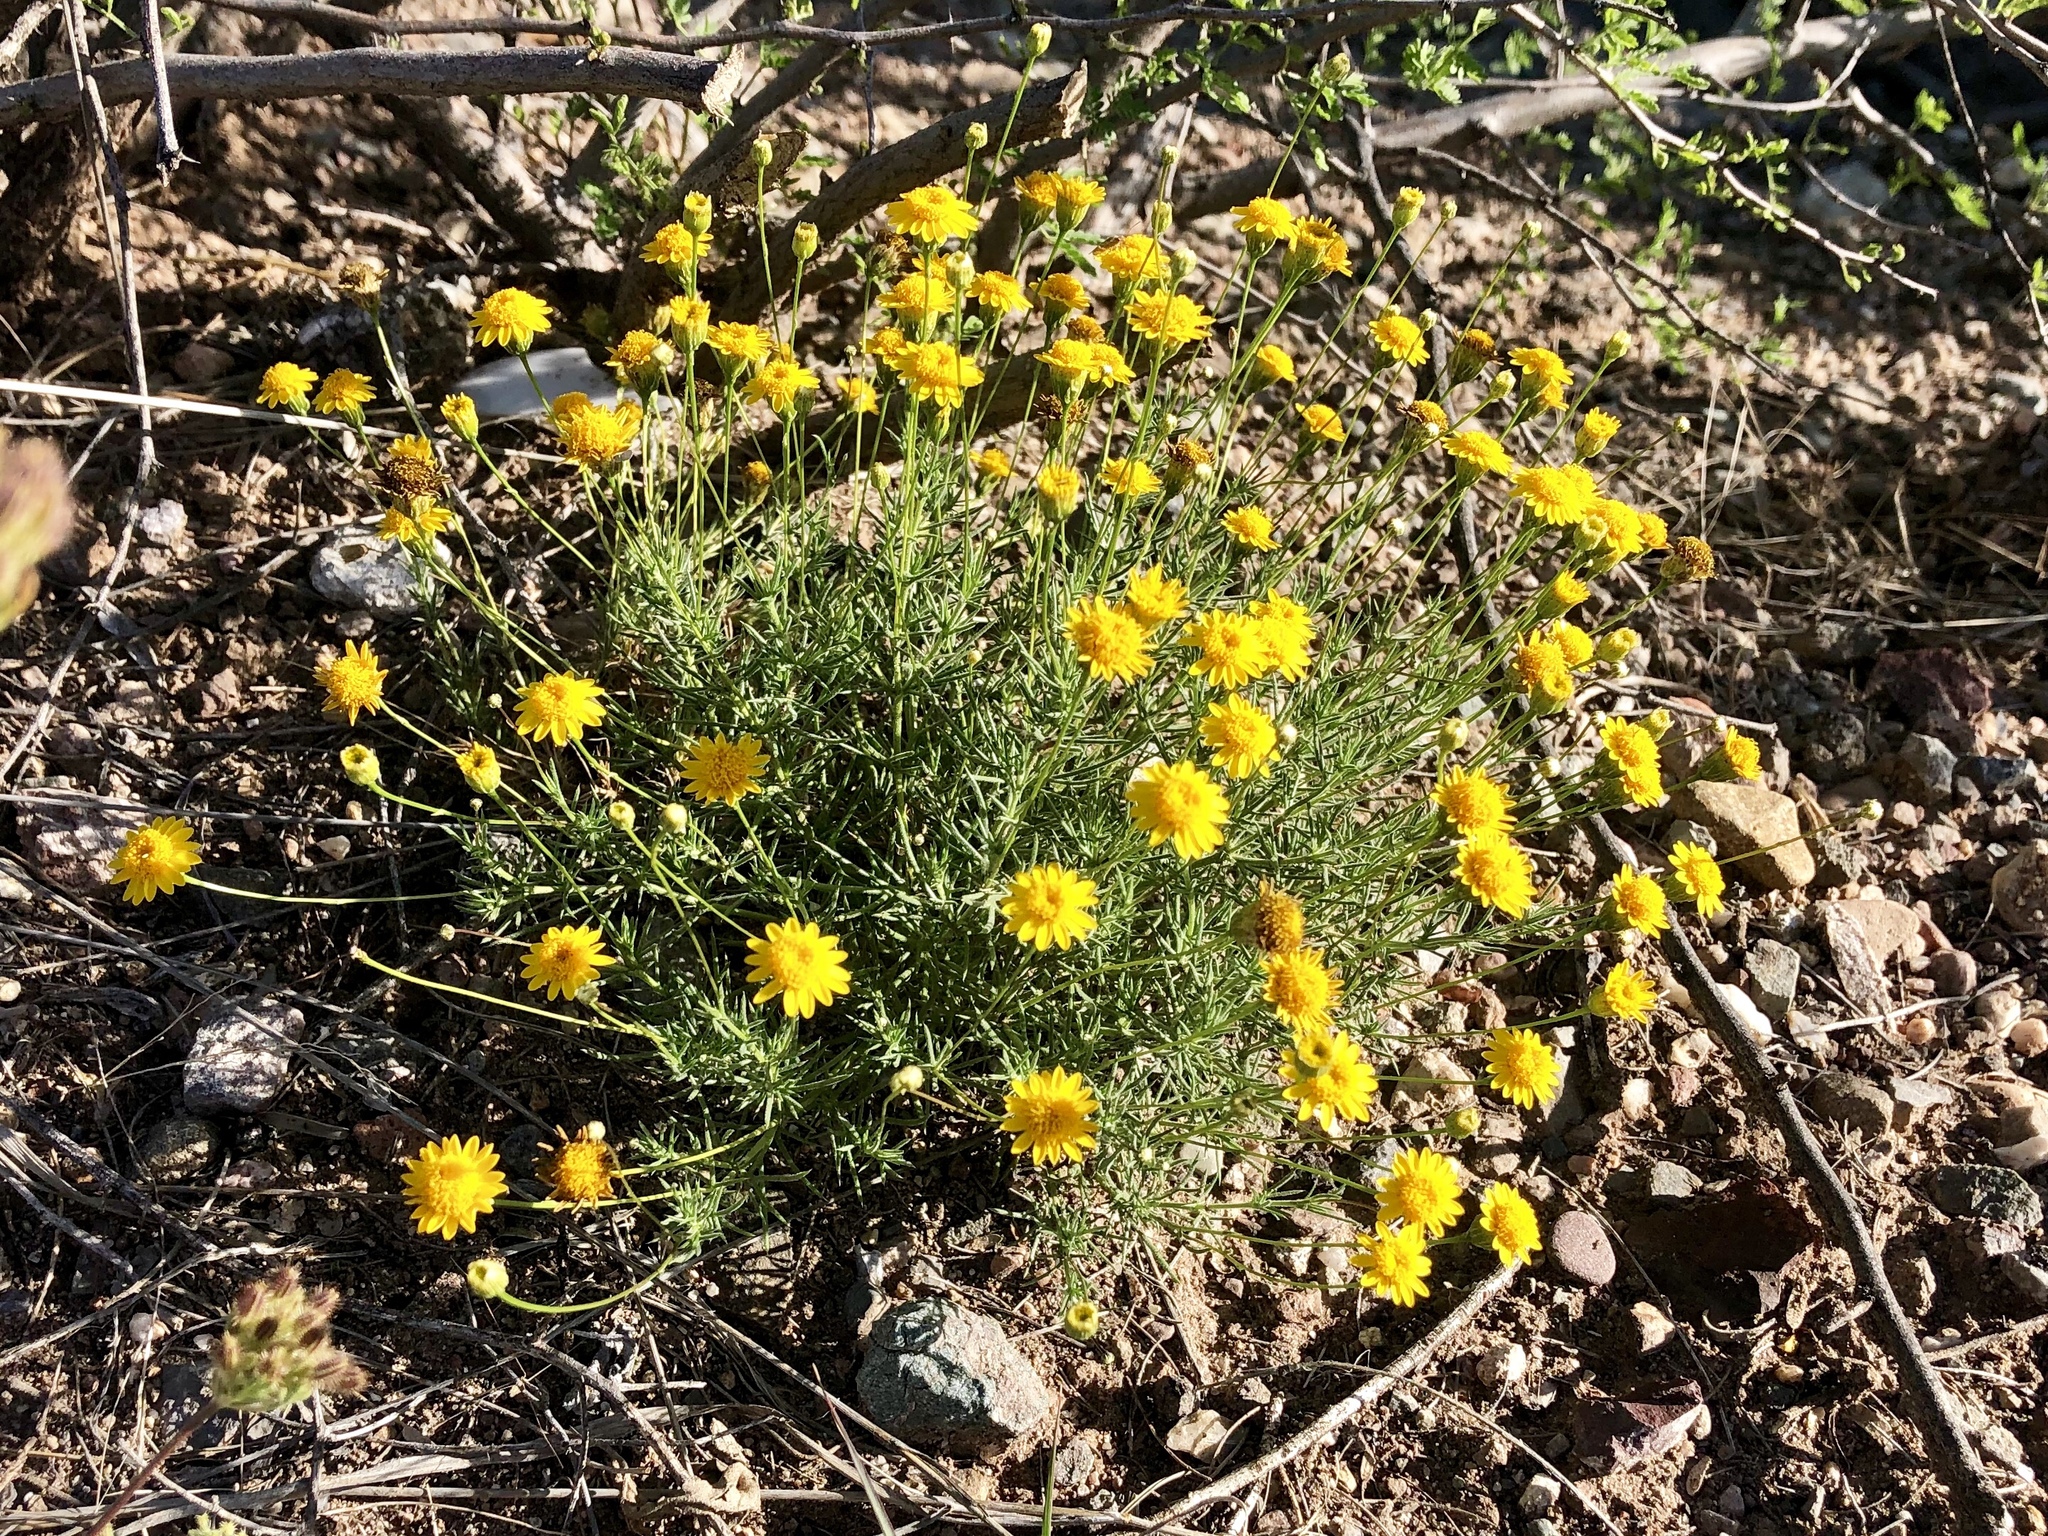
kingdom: Plantae
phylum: Tracheophyta
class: Magnoliopsida
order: Asterales
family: Asteraceae
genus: Thymophylla
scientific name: Thymophylla pentachaeta
